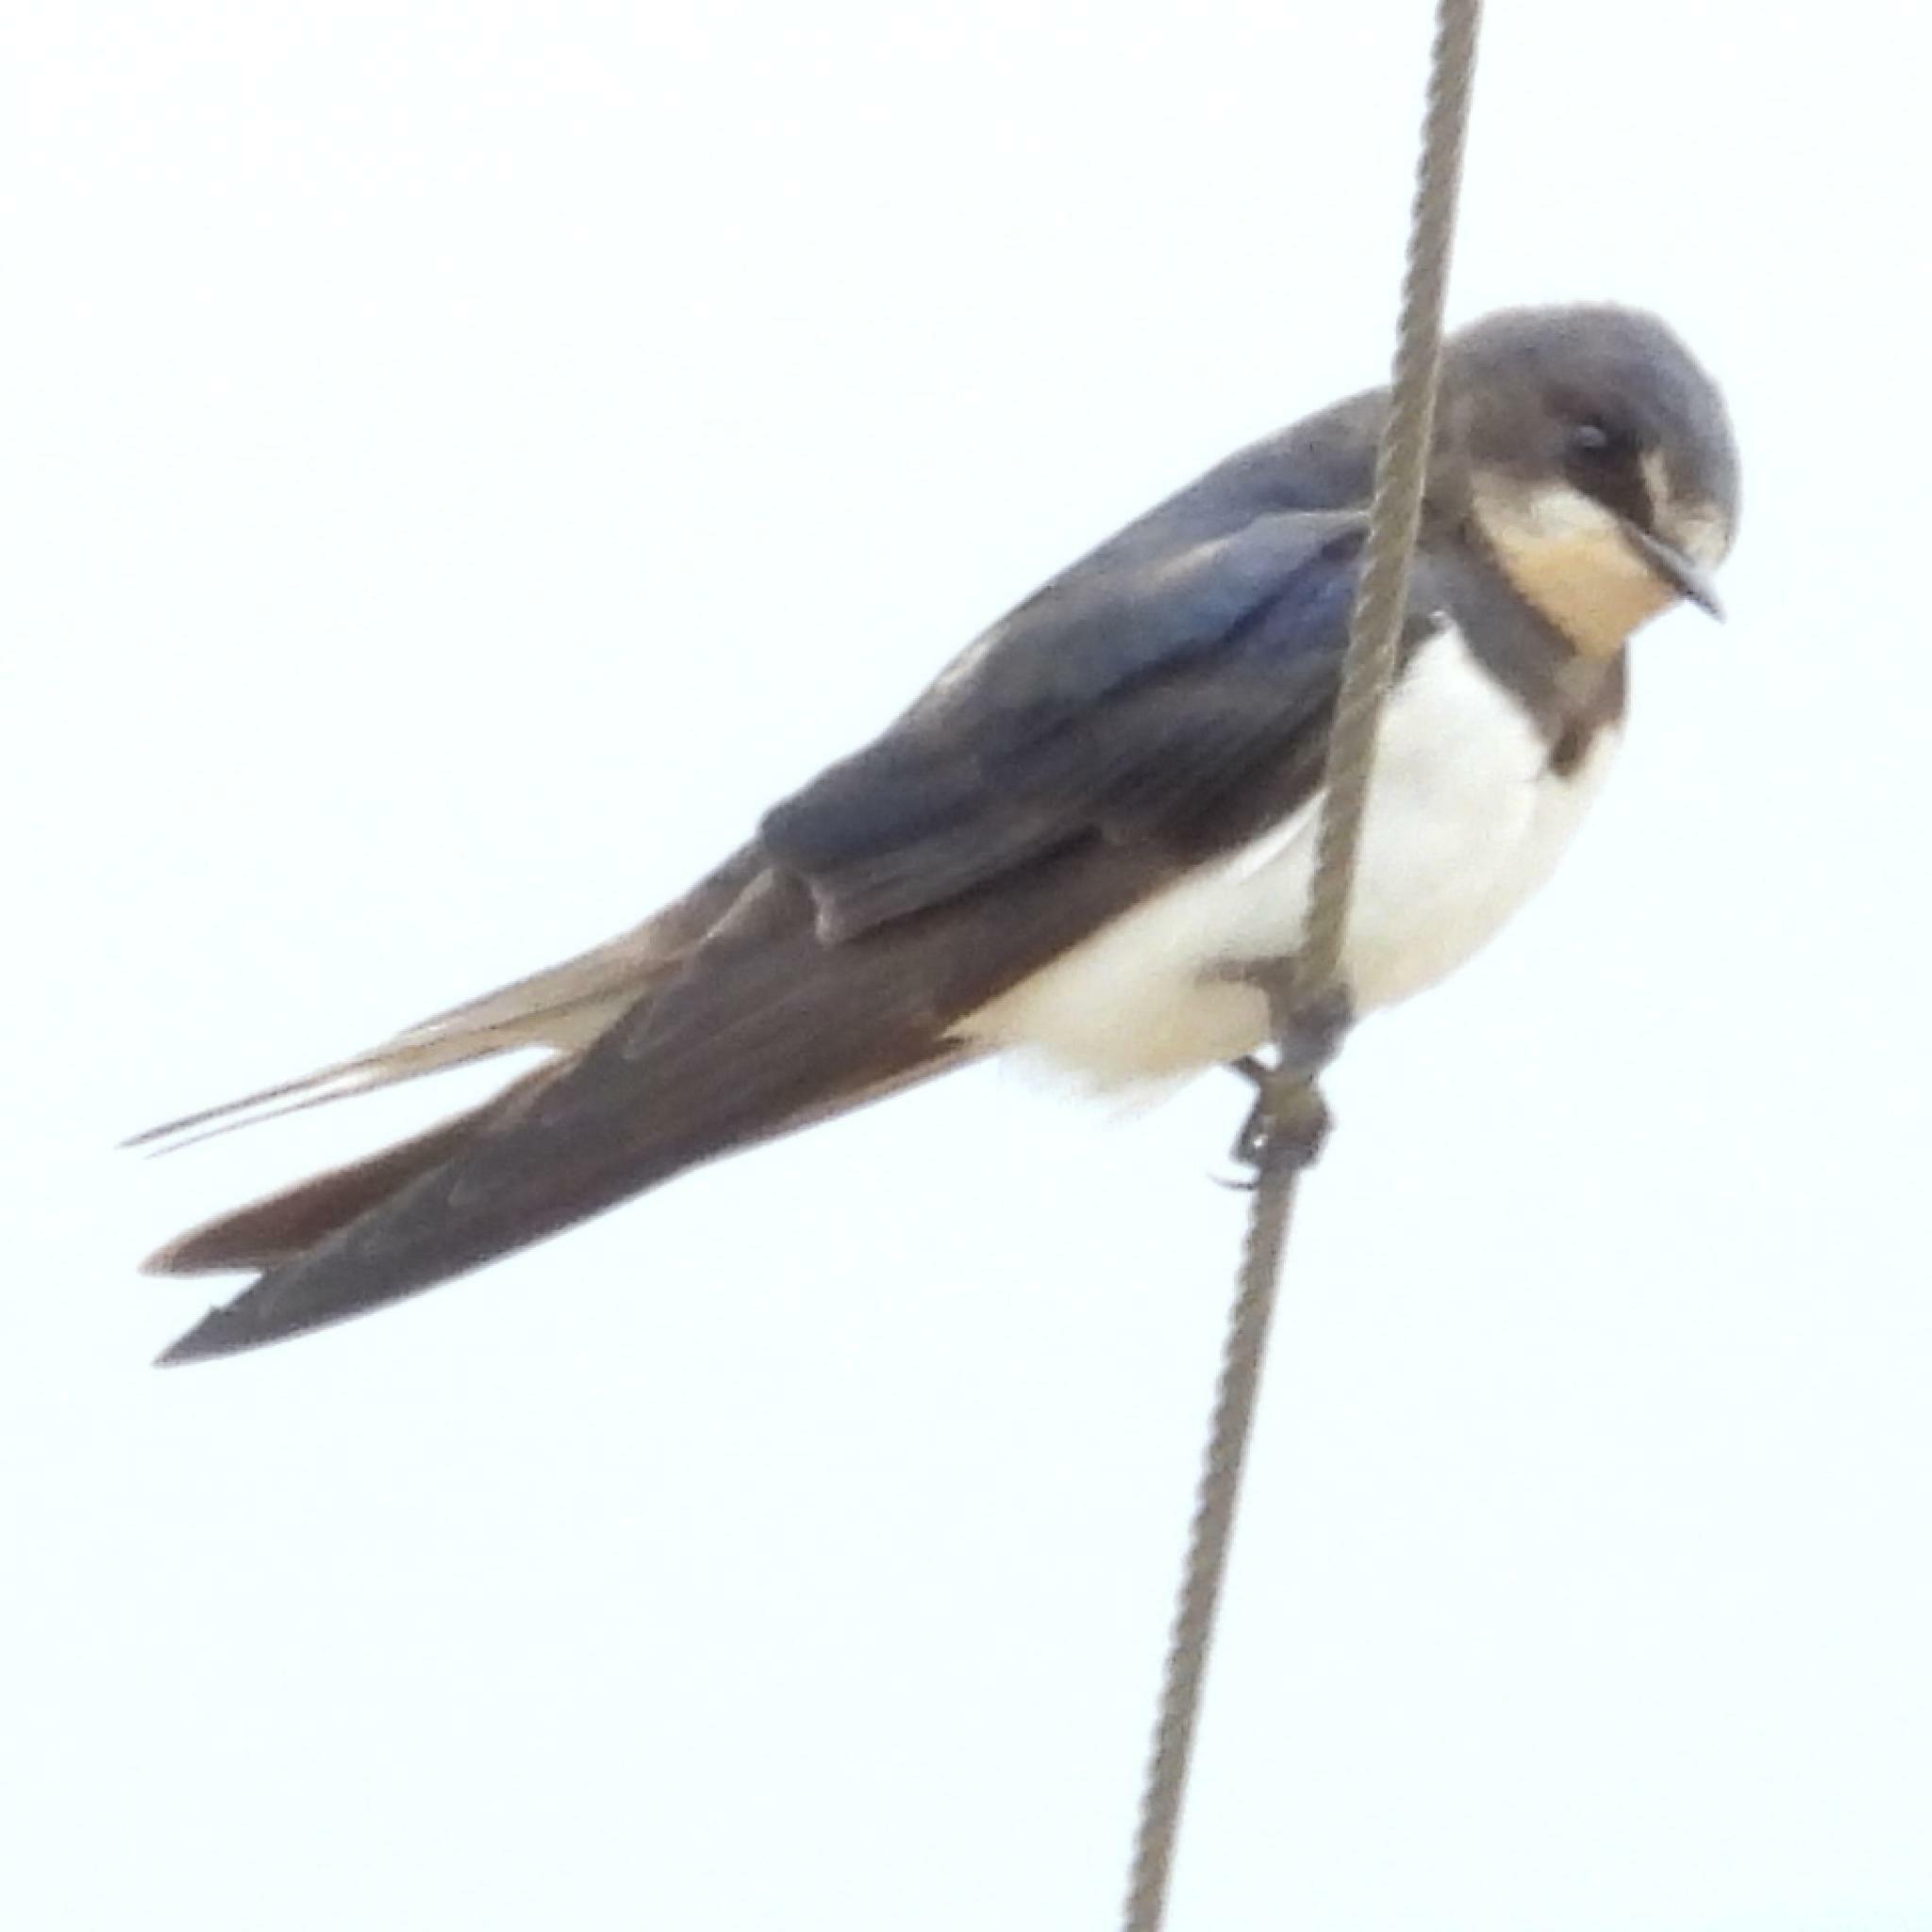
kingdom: Animalia
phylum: Chordata
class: Aves
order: Passeriformes
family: Hirundinidae
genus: Hirundo
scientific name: Hirundo rustica
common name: Barn swallow
